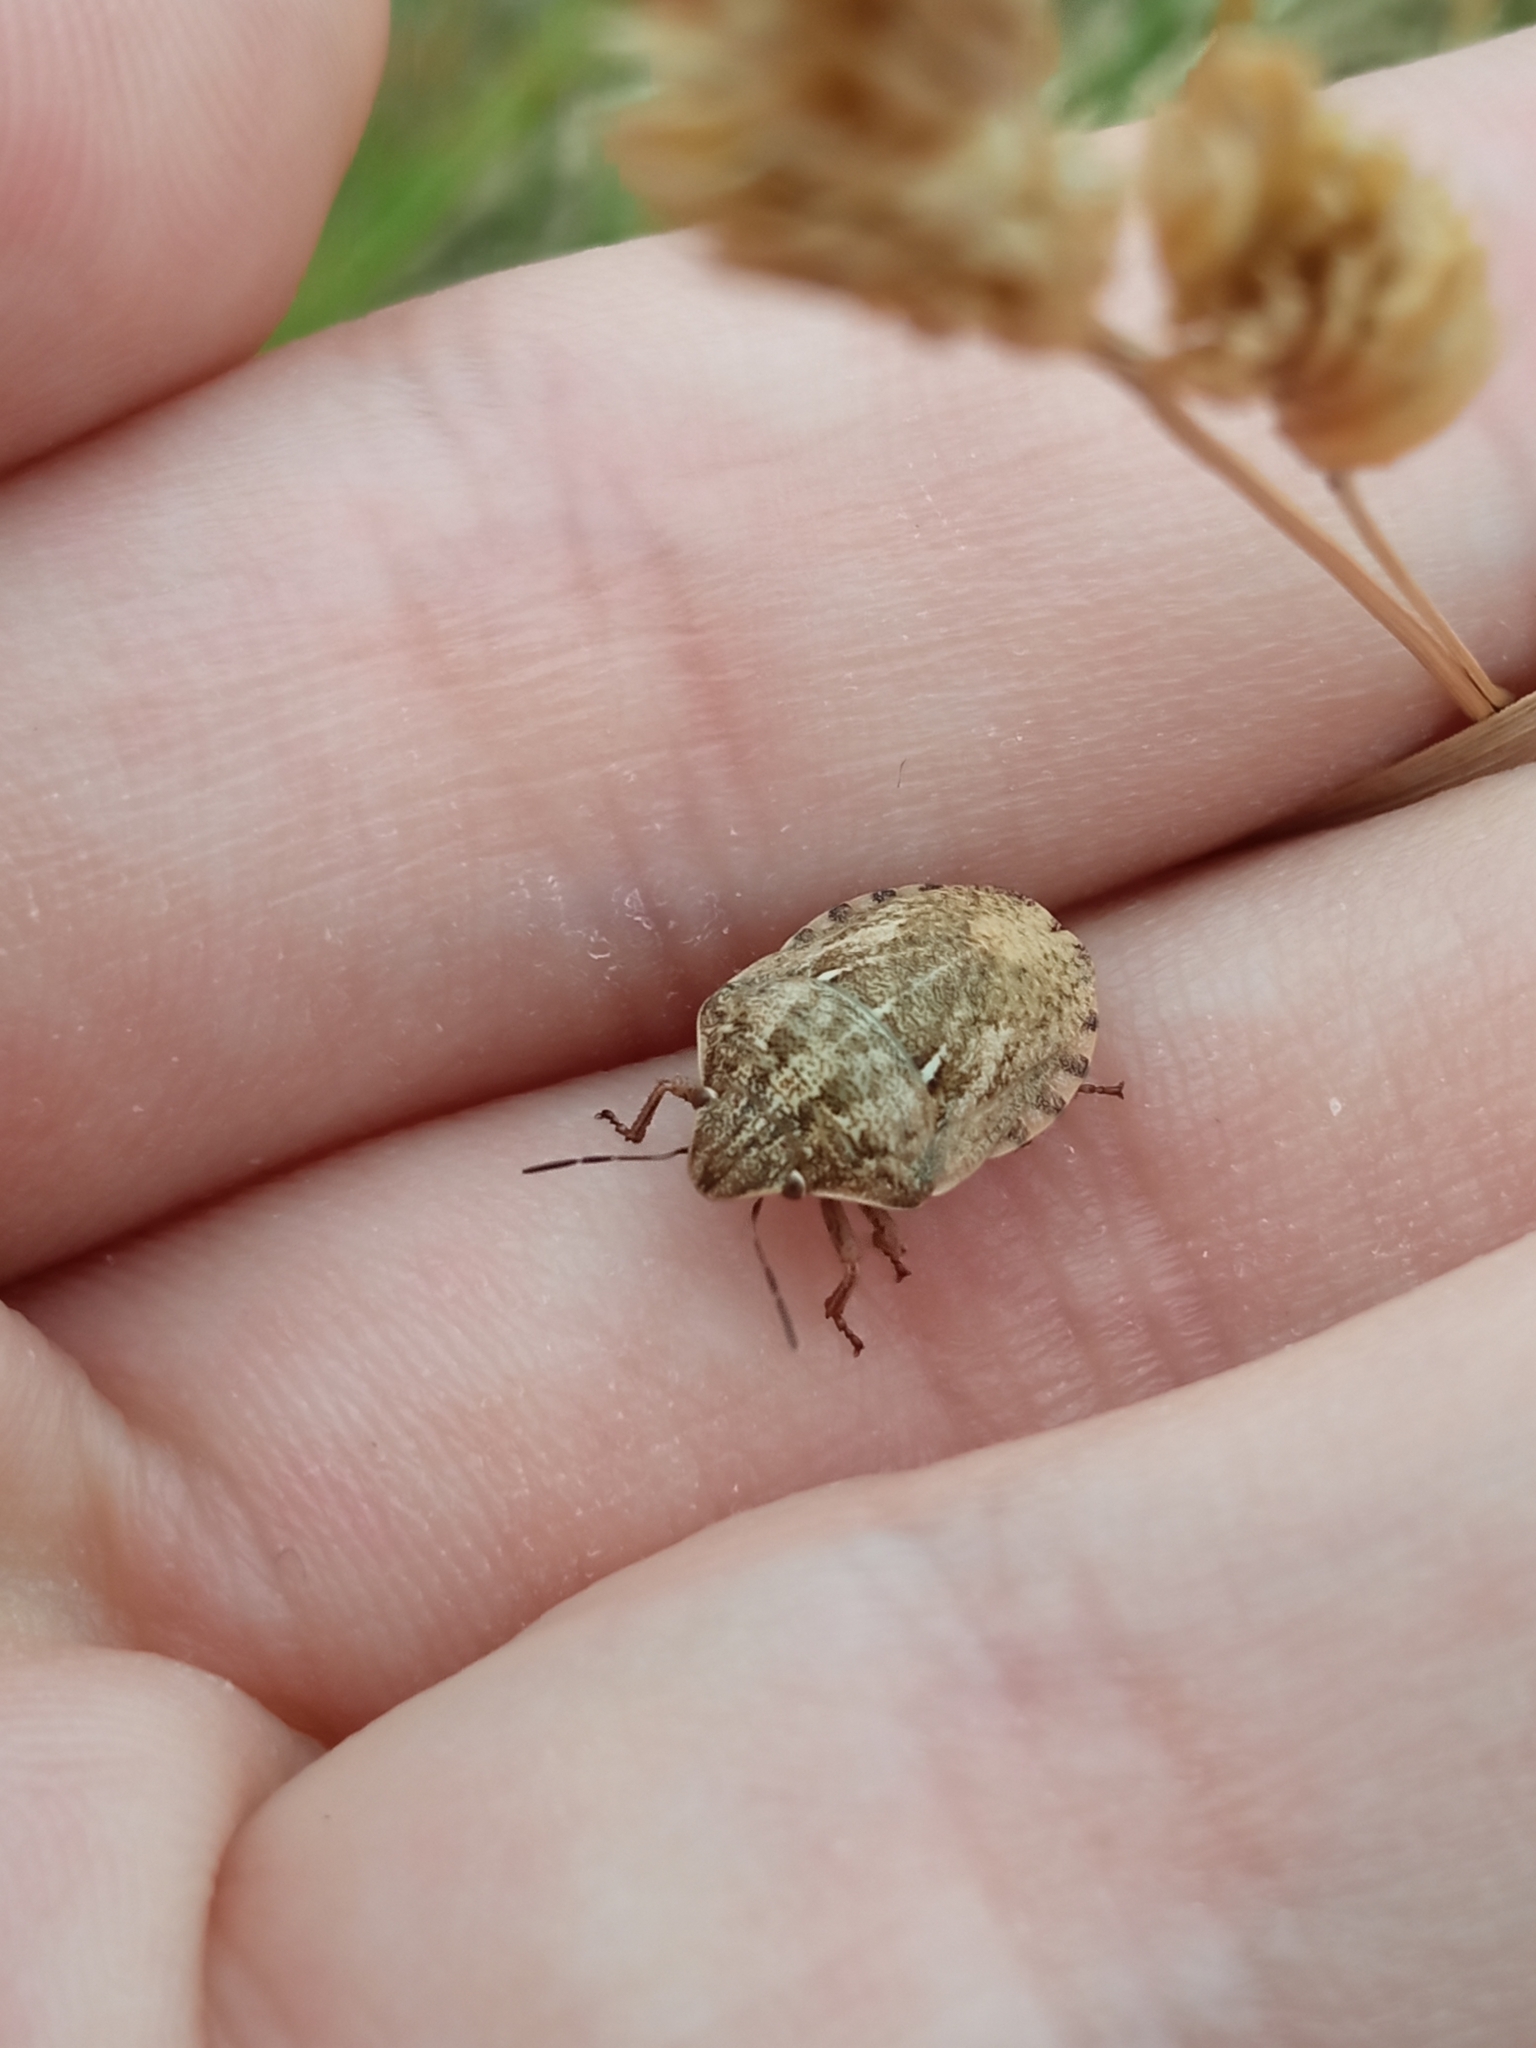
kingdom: Animalia
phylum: Arthropoda
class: Insecta
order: Hemiptera
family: Scutelleridae
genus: Eurygaster
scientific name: Eurygaster maura
